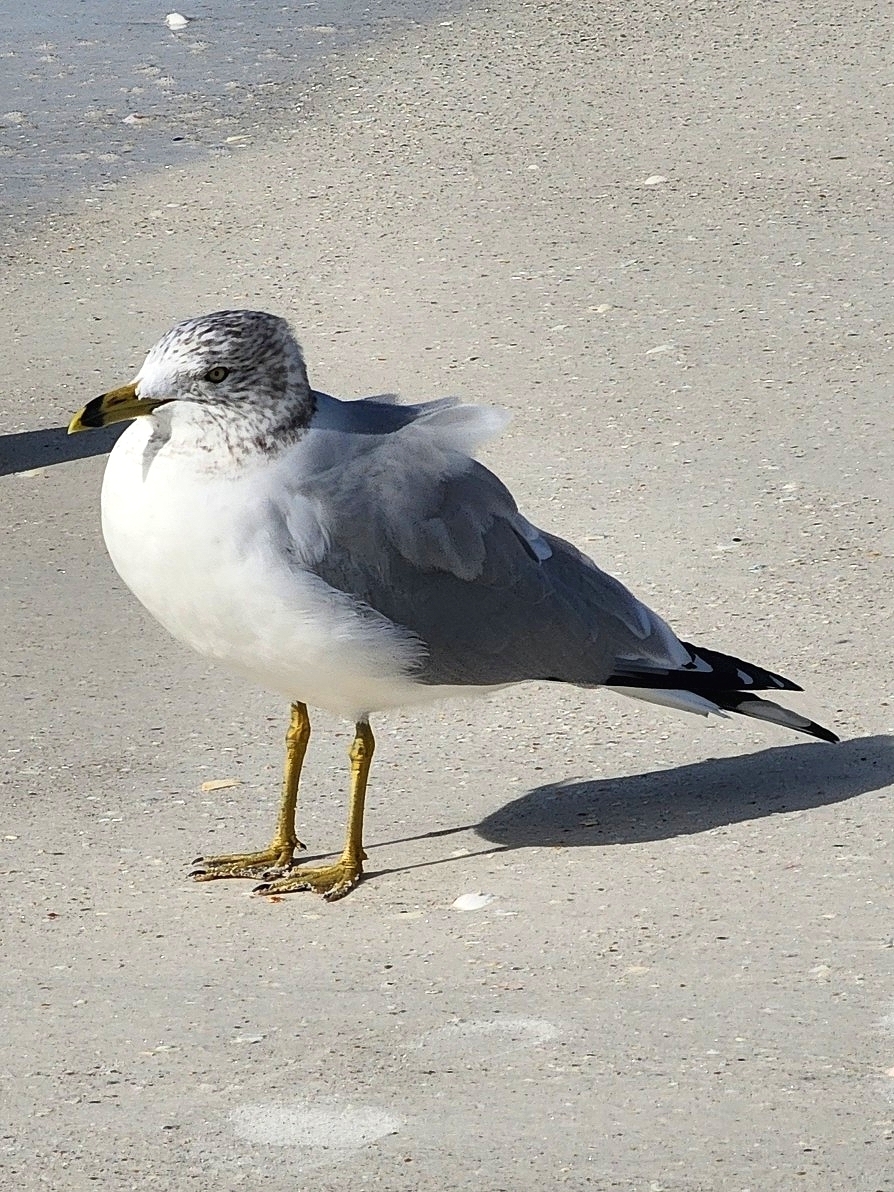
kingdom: Animalia
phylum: Chordata
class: Aves
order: Charadriiformes
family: Laridae
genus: Larus
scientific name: Larus delawarensis
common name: Ring-billed gull
